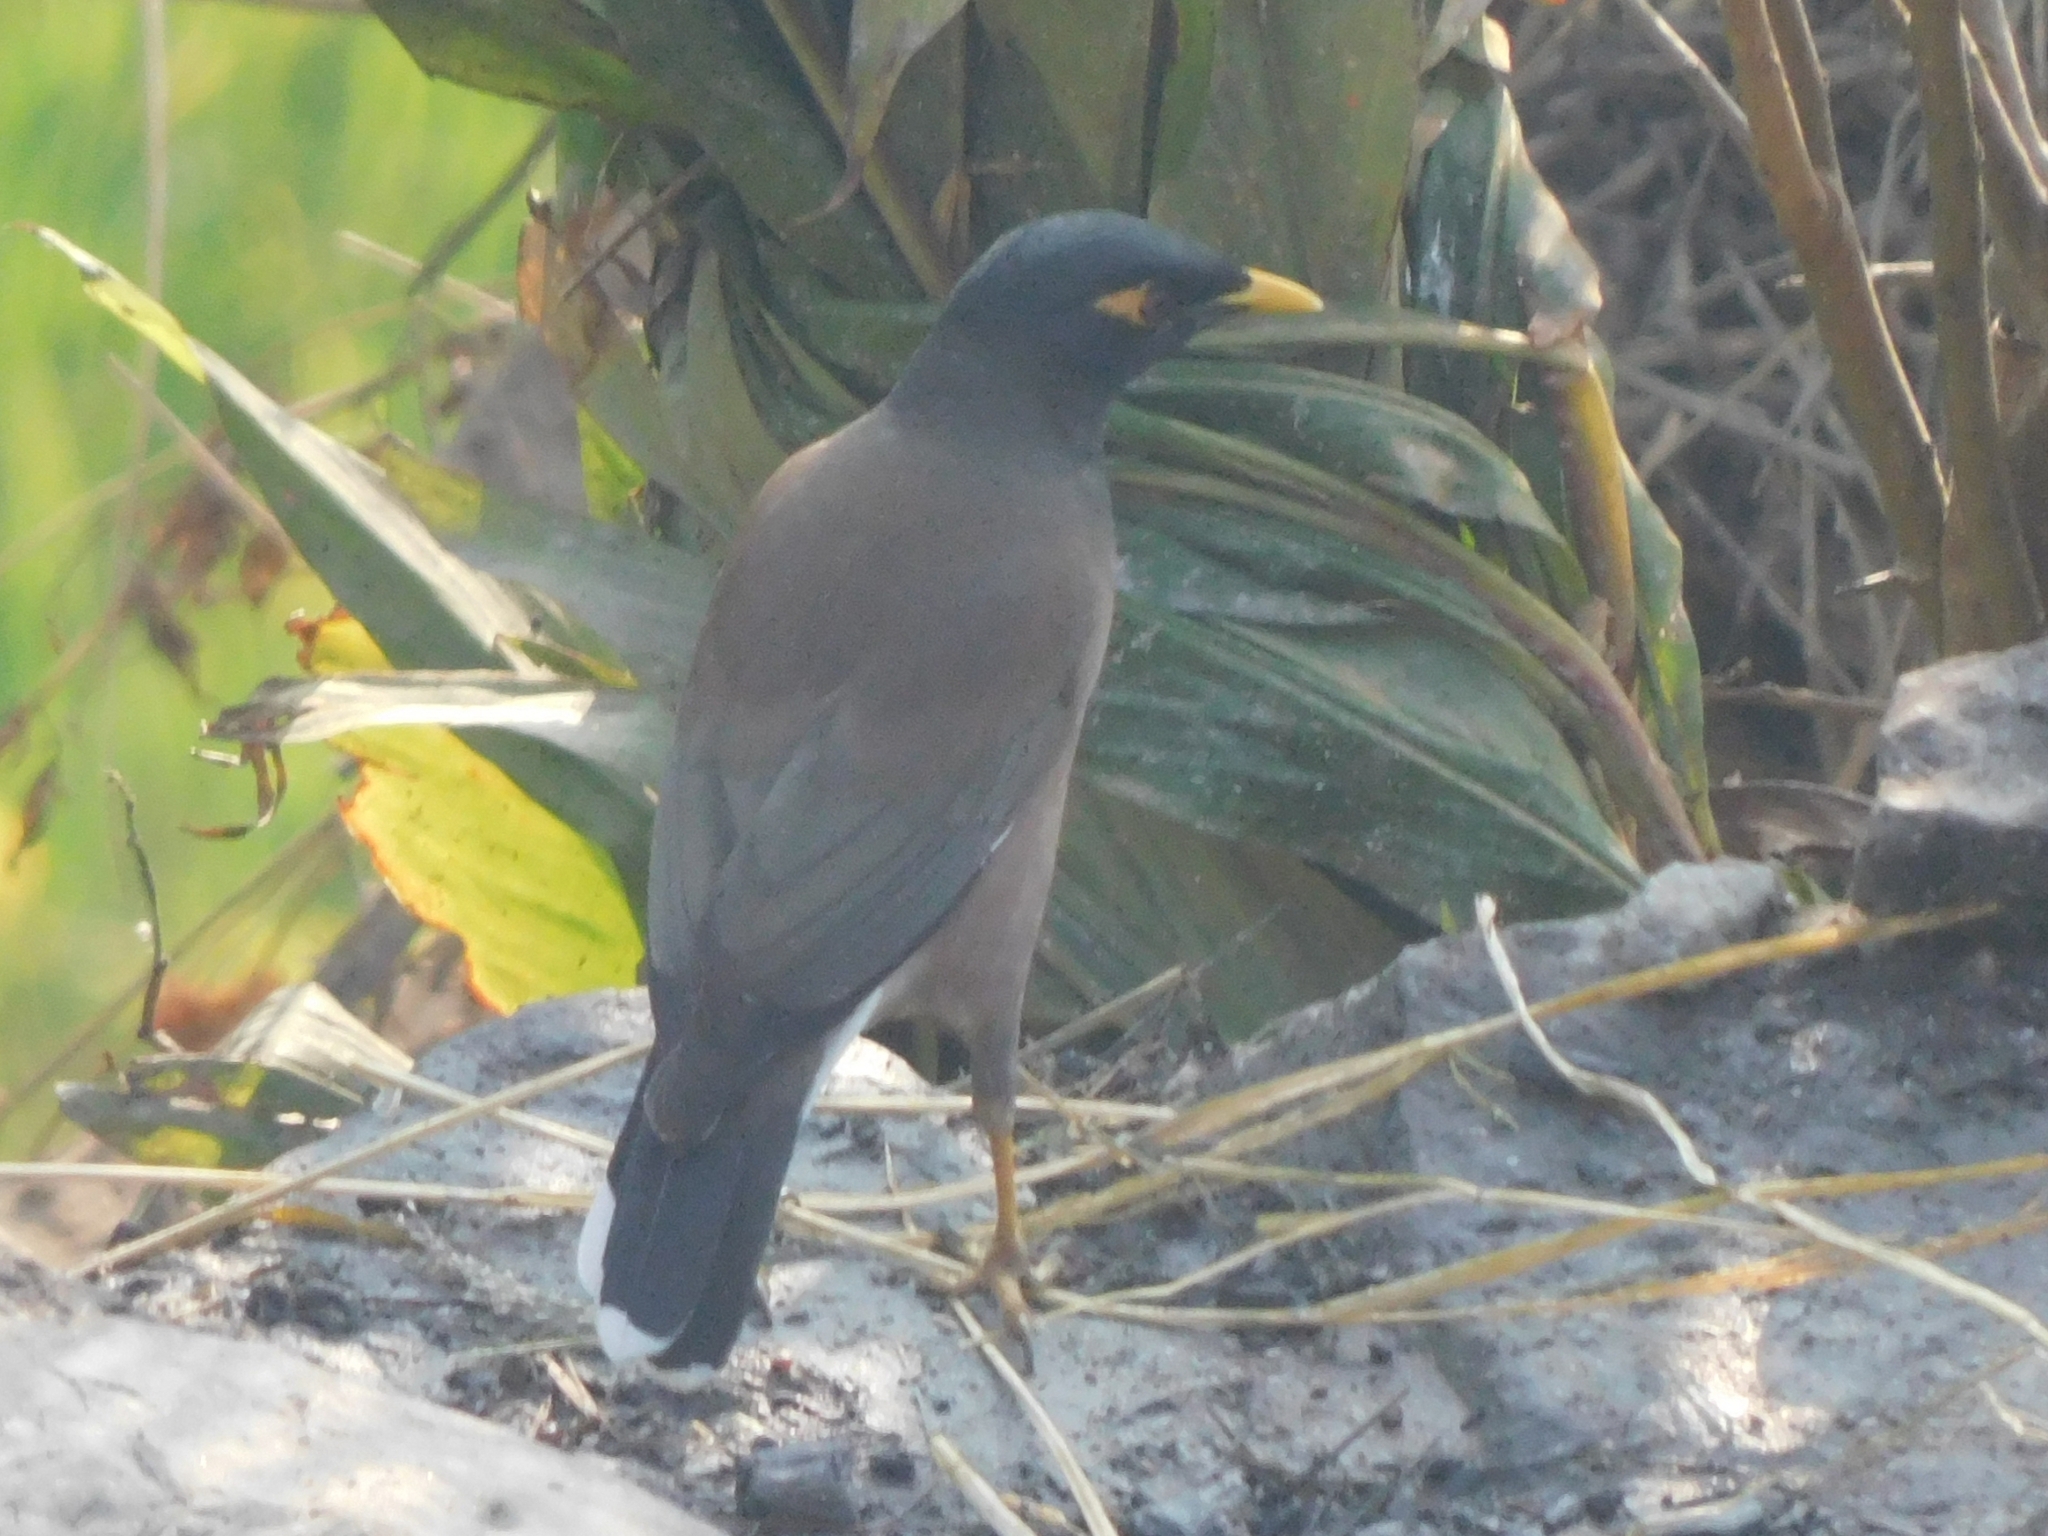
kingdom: Animalia
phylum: Chordata
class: Aves
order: Passeriformes
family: Sturnidae
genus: Acridotheres
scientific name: Acridotheres tristis
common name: Common myna
